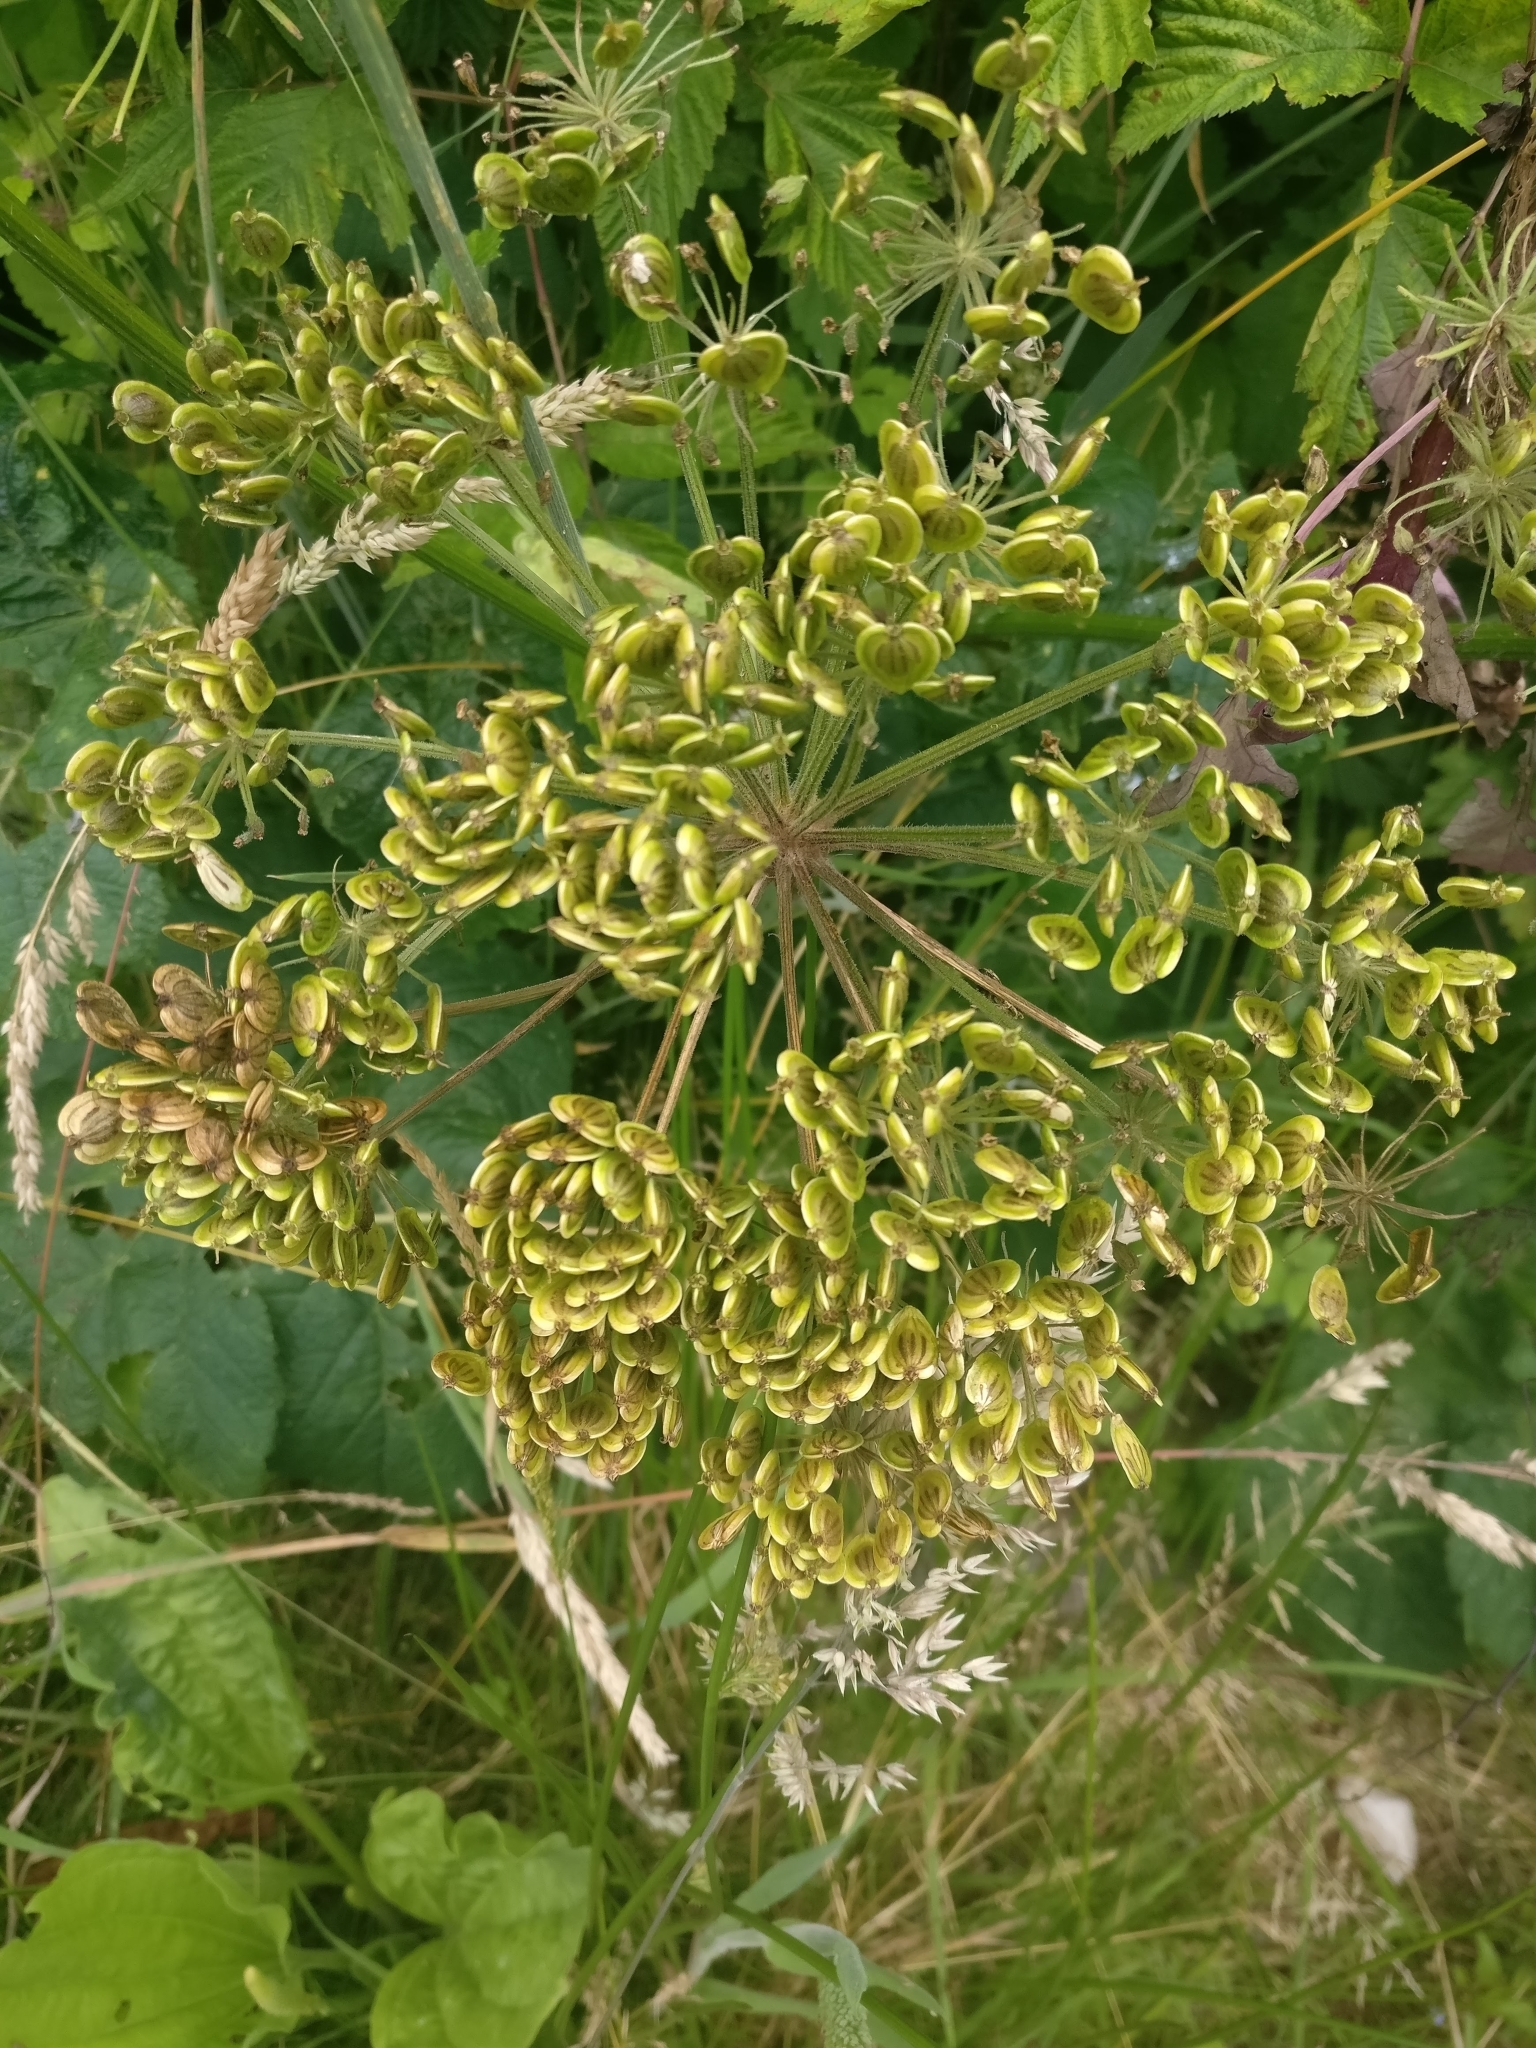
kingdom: Plantae
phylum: Tracheophyta
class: Magnoliopsida
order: Apiales
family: Apiaceae
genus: Heracleum
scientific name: Heracleum maximum
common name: American cow parsnip
